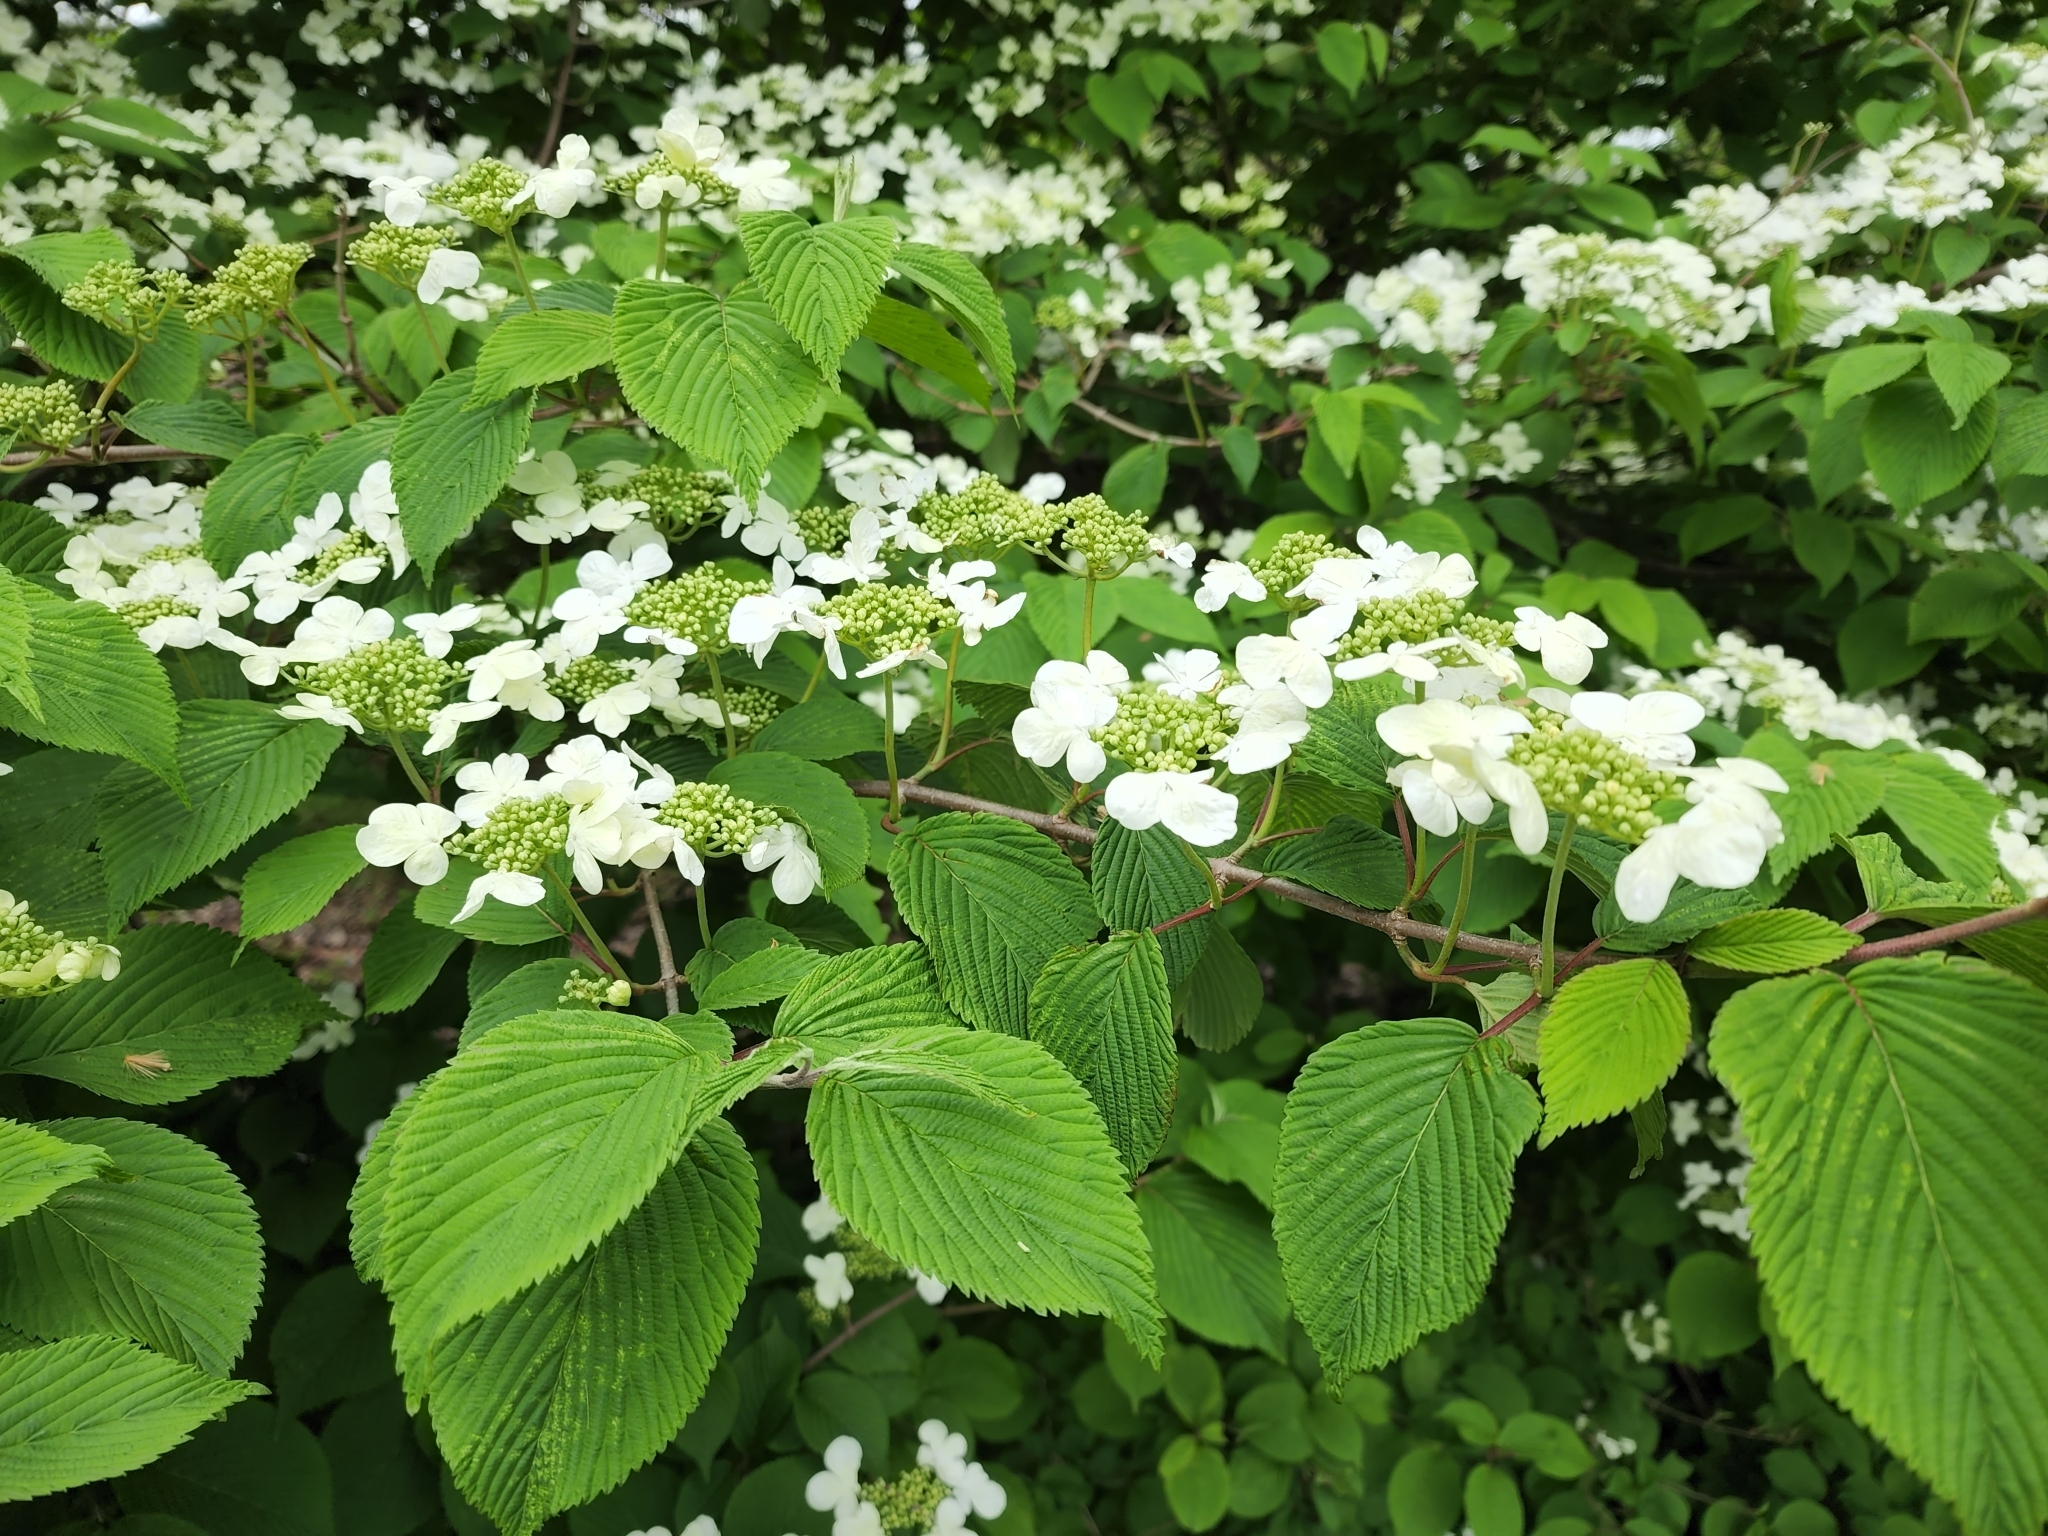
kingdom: Plantae
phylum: Tracheophyta
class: Magnoliopsida
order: Dipsacales
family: Viburnaceae
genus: Viburnum
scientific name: Viburnum plicatum
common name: Japanese snowball
